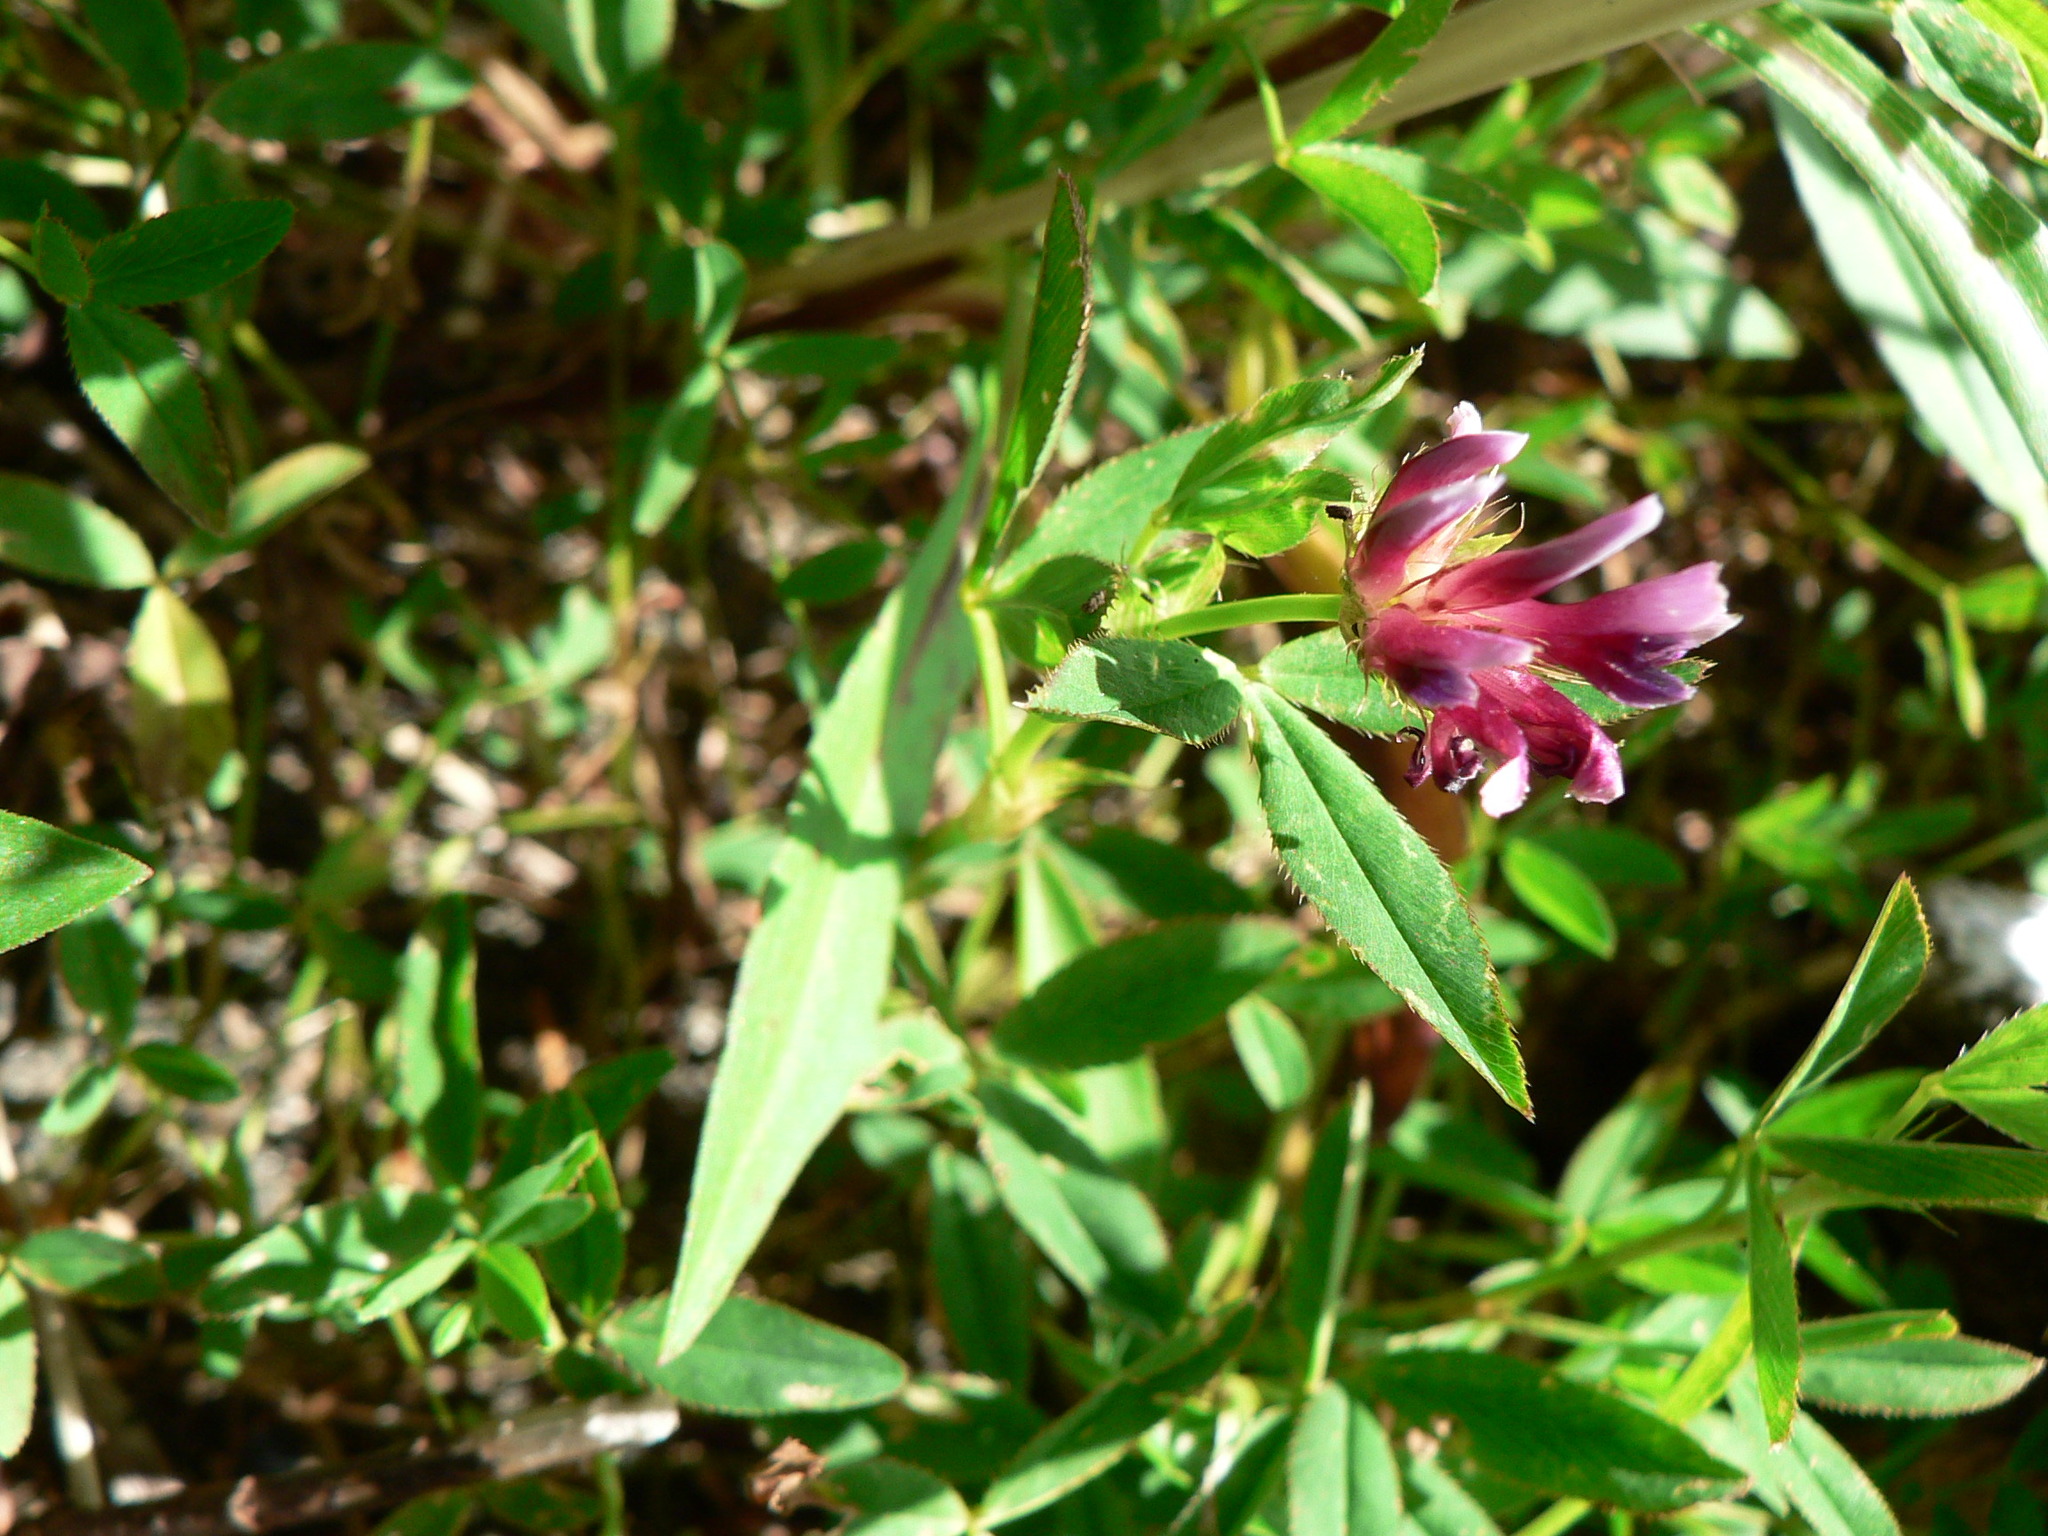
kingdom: Plantae
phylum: Tracheophyta
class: Magnoliopsida
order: Fabales
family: Fabaceae
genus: Trifolium
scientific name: Trifolium wormskioldii
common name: Springbank clover
